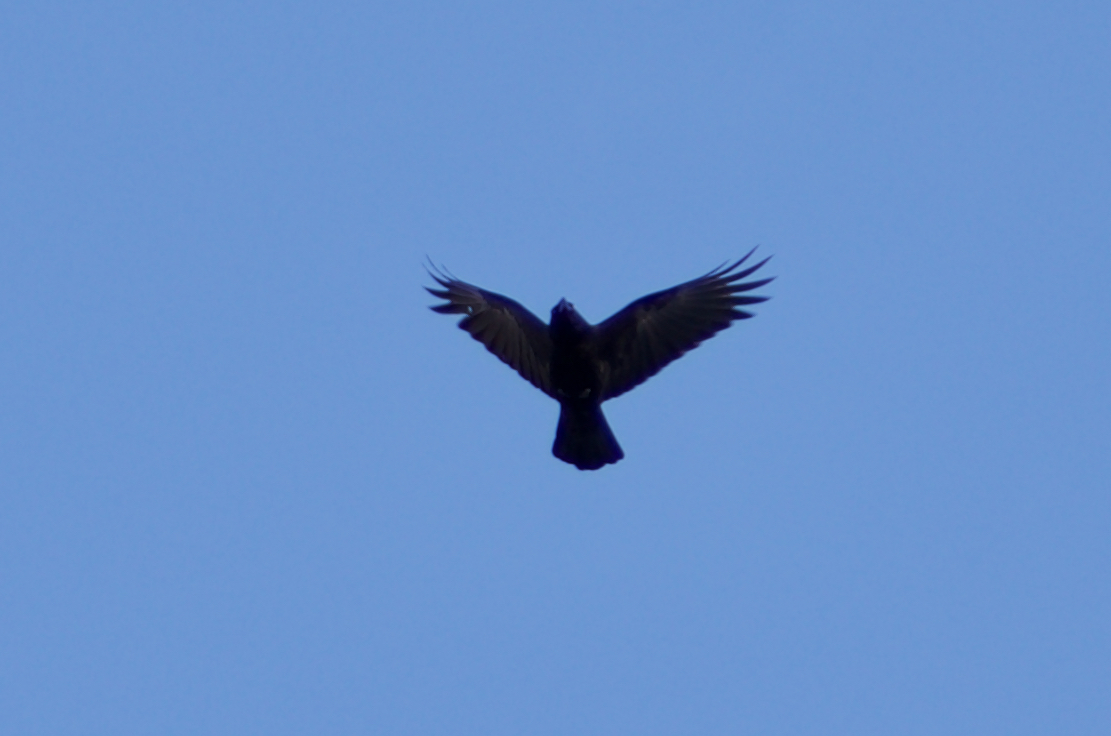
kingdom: Animalia
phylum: Chordata
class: Aves
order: Passeriformes
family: Corvidae
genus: Corvus
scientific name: Corvus corone
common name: Carrion crow
